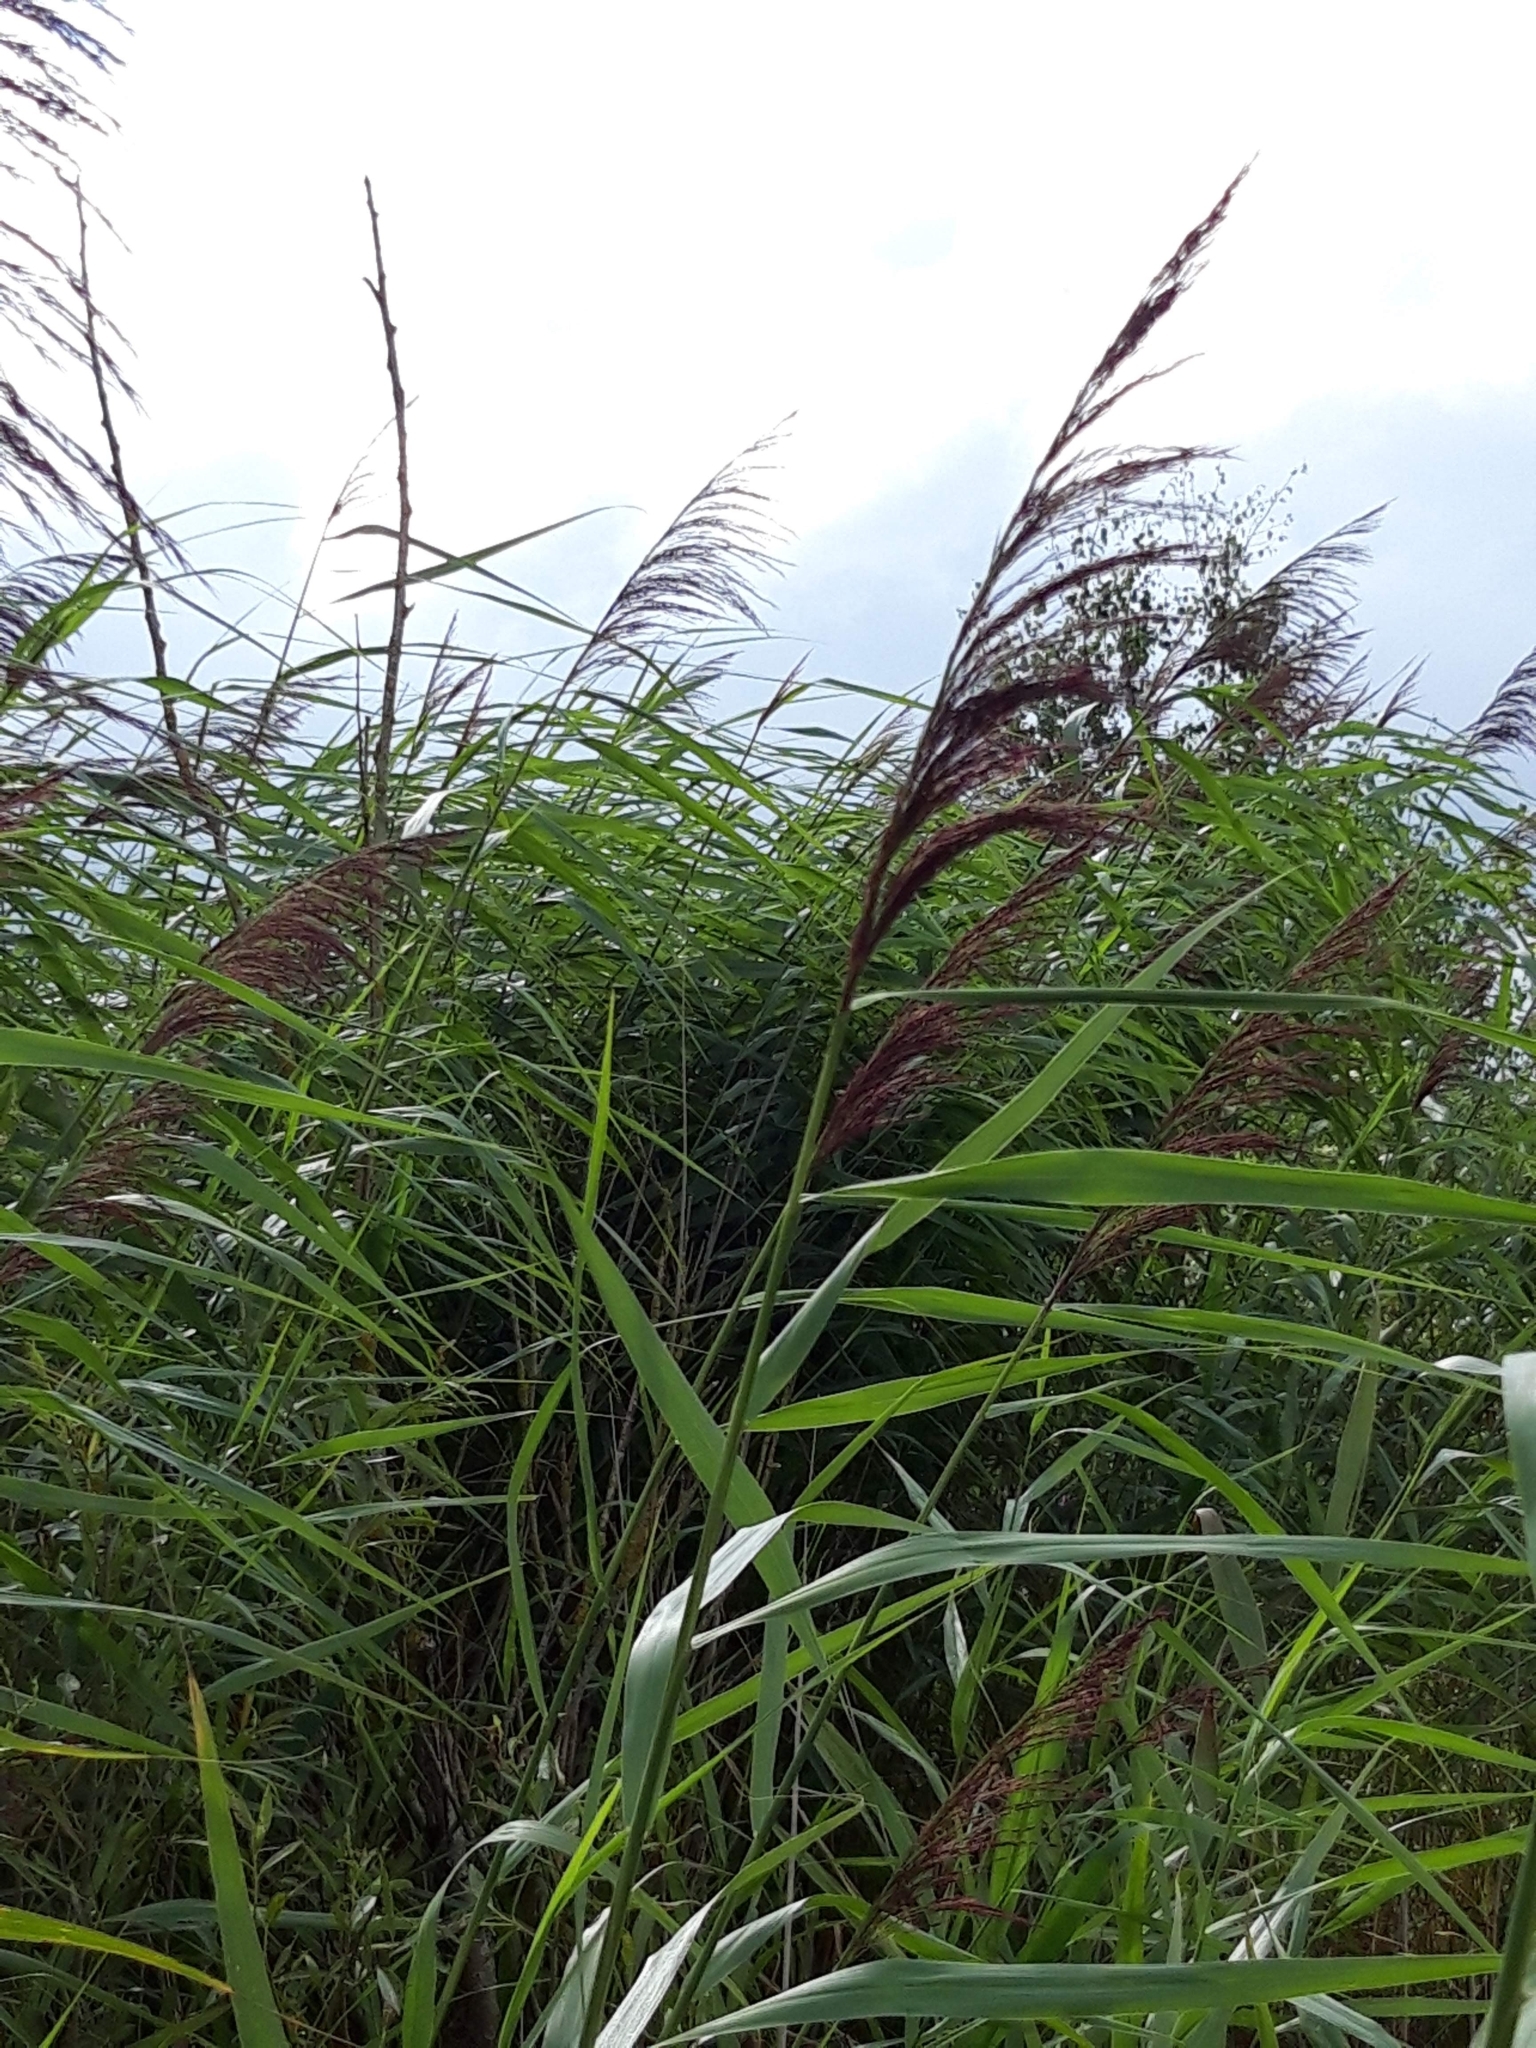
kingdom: Plantae
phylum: Tracheophyta
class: Liliopsida
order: Poales
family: Poaceae
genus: Phragmites
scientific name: Phragmites australis
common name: Common reed
